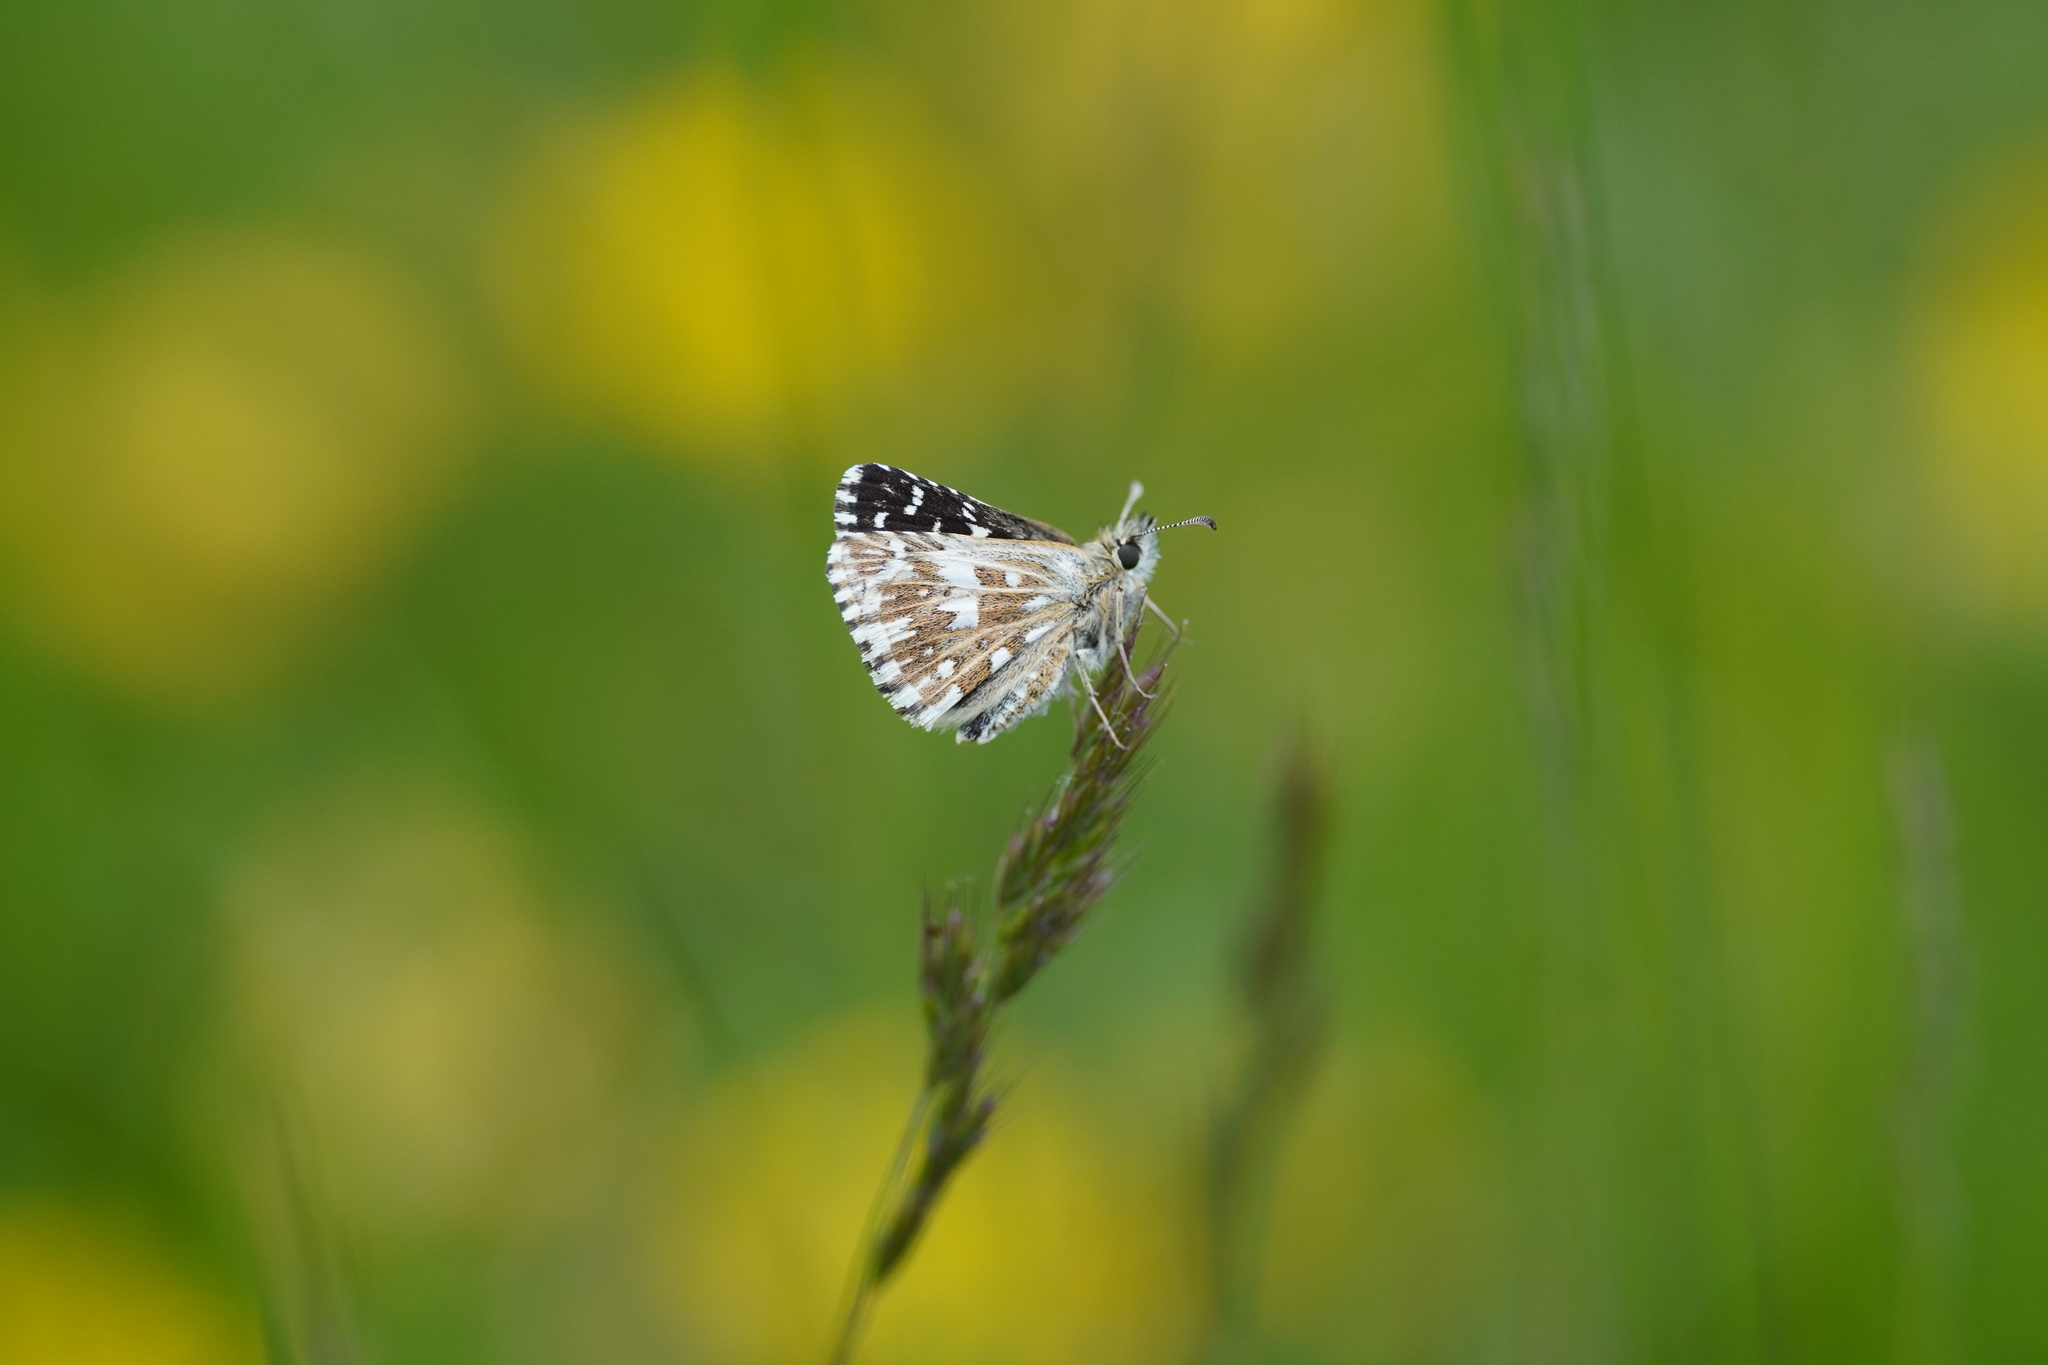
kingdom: Animalia
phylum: Arthropoda
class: Insecta
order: Lepidoptera
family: Hesperiidae
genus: Pyrgus
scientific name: Pyrgus malvae
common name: Grizzled skipper
